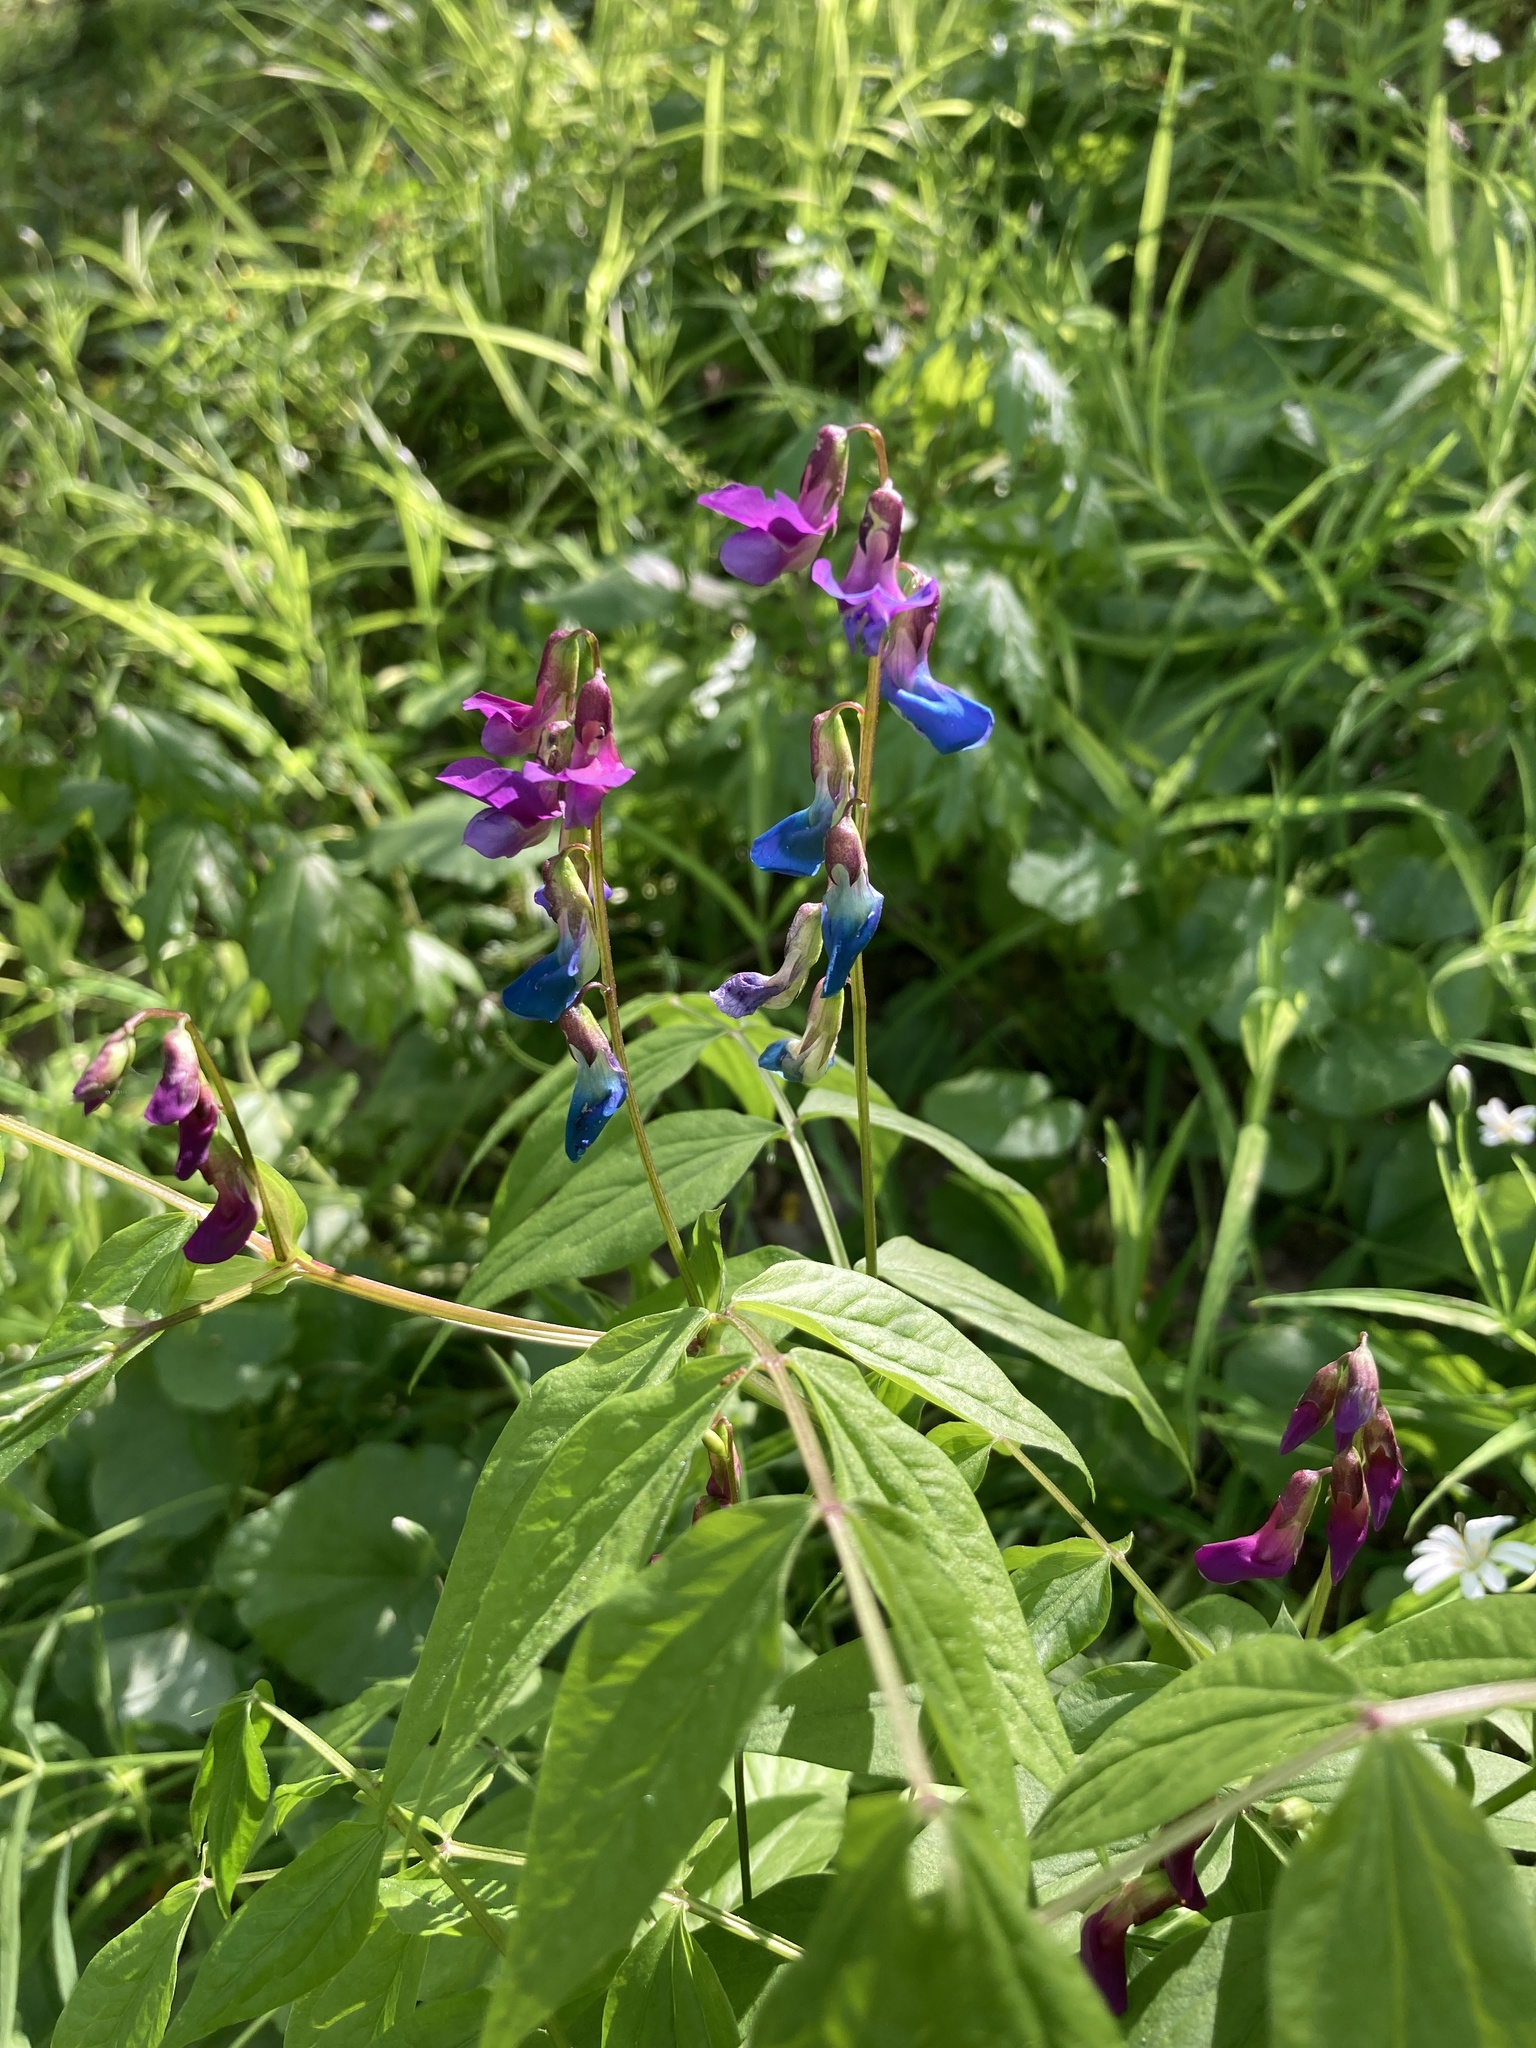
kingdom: Plantae
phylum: Tracheophyta
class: Magnoliopsida
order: Fabales
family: Fabaceae
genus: Lathyrus
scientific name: Lathyrus vernus
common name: Spring pea
